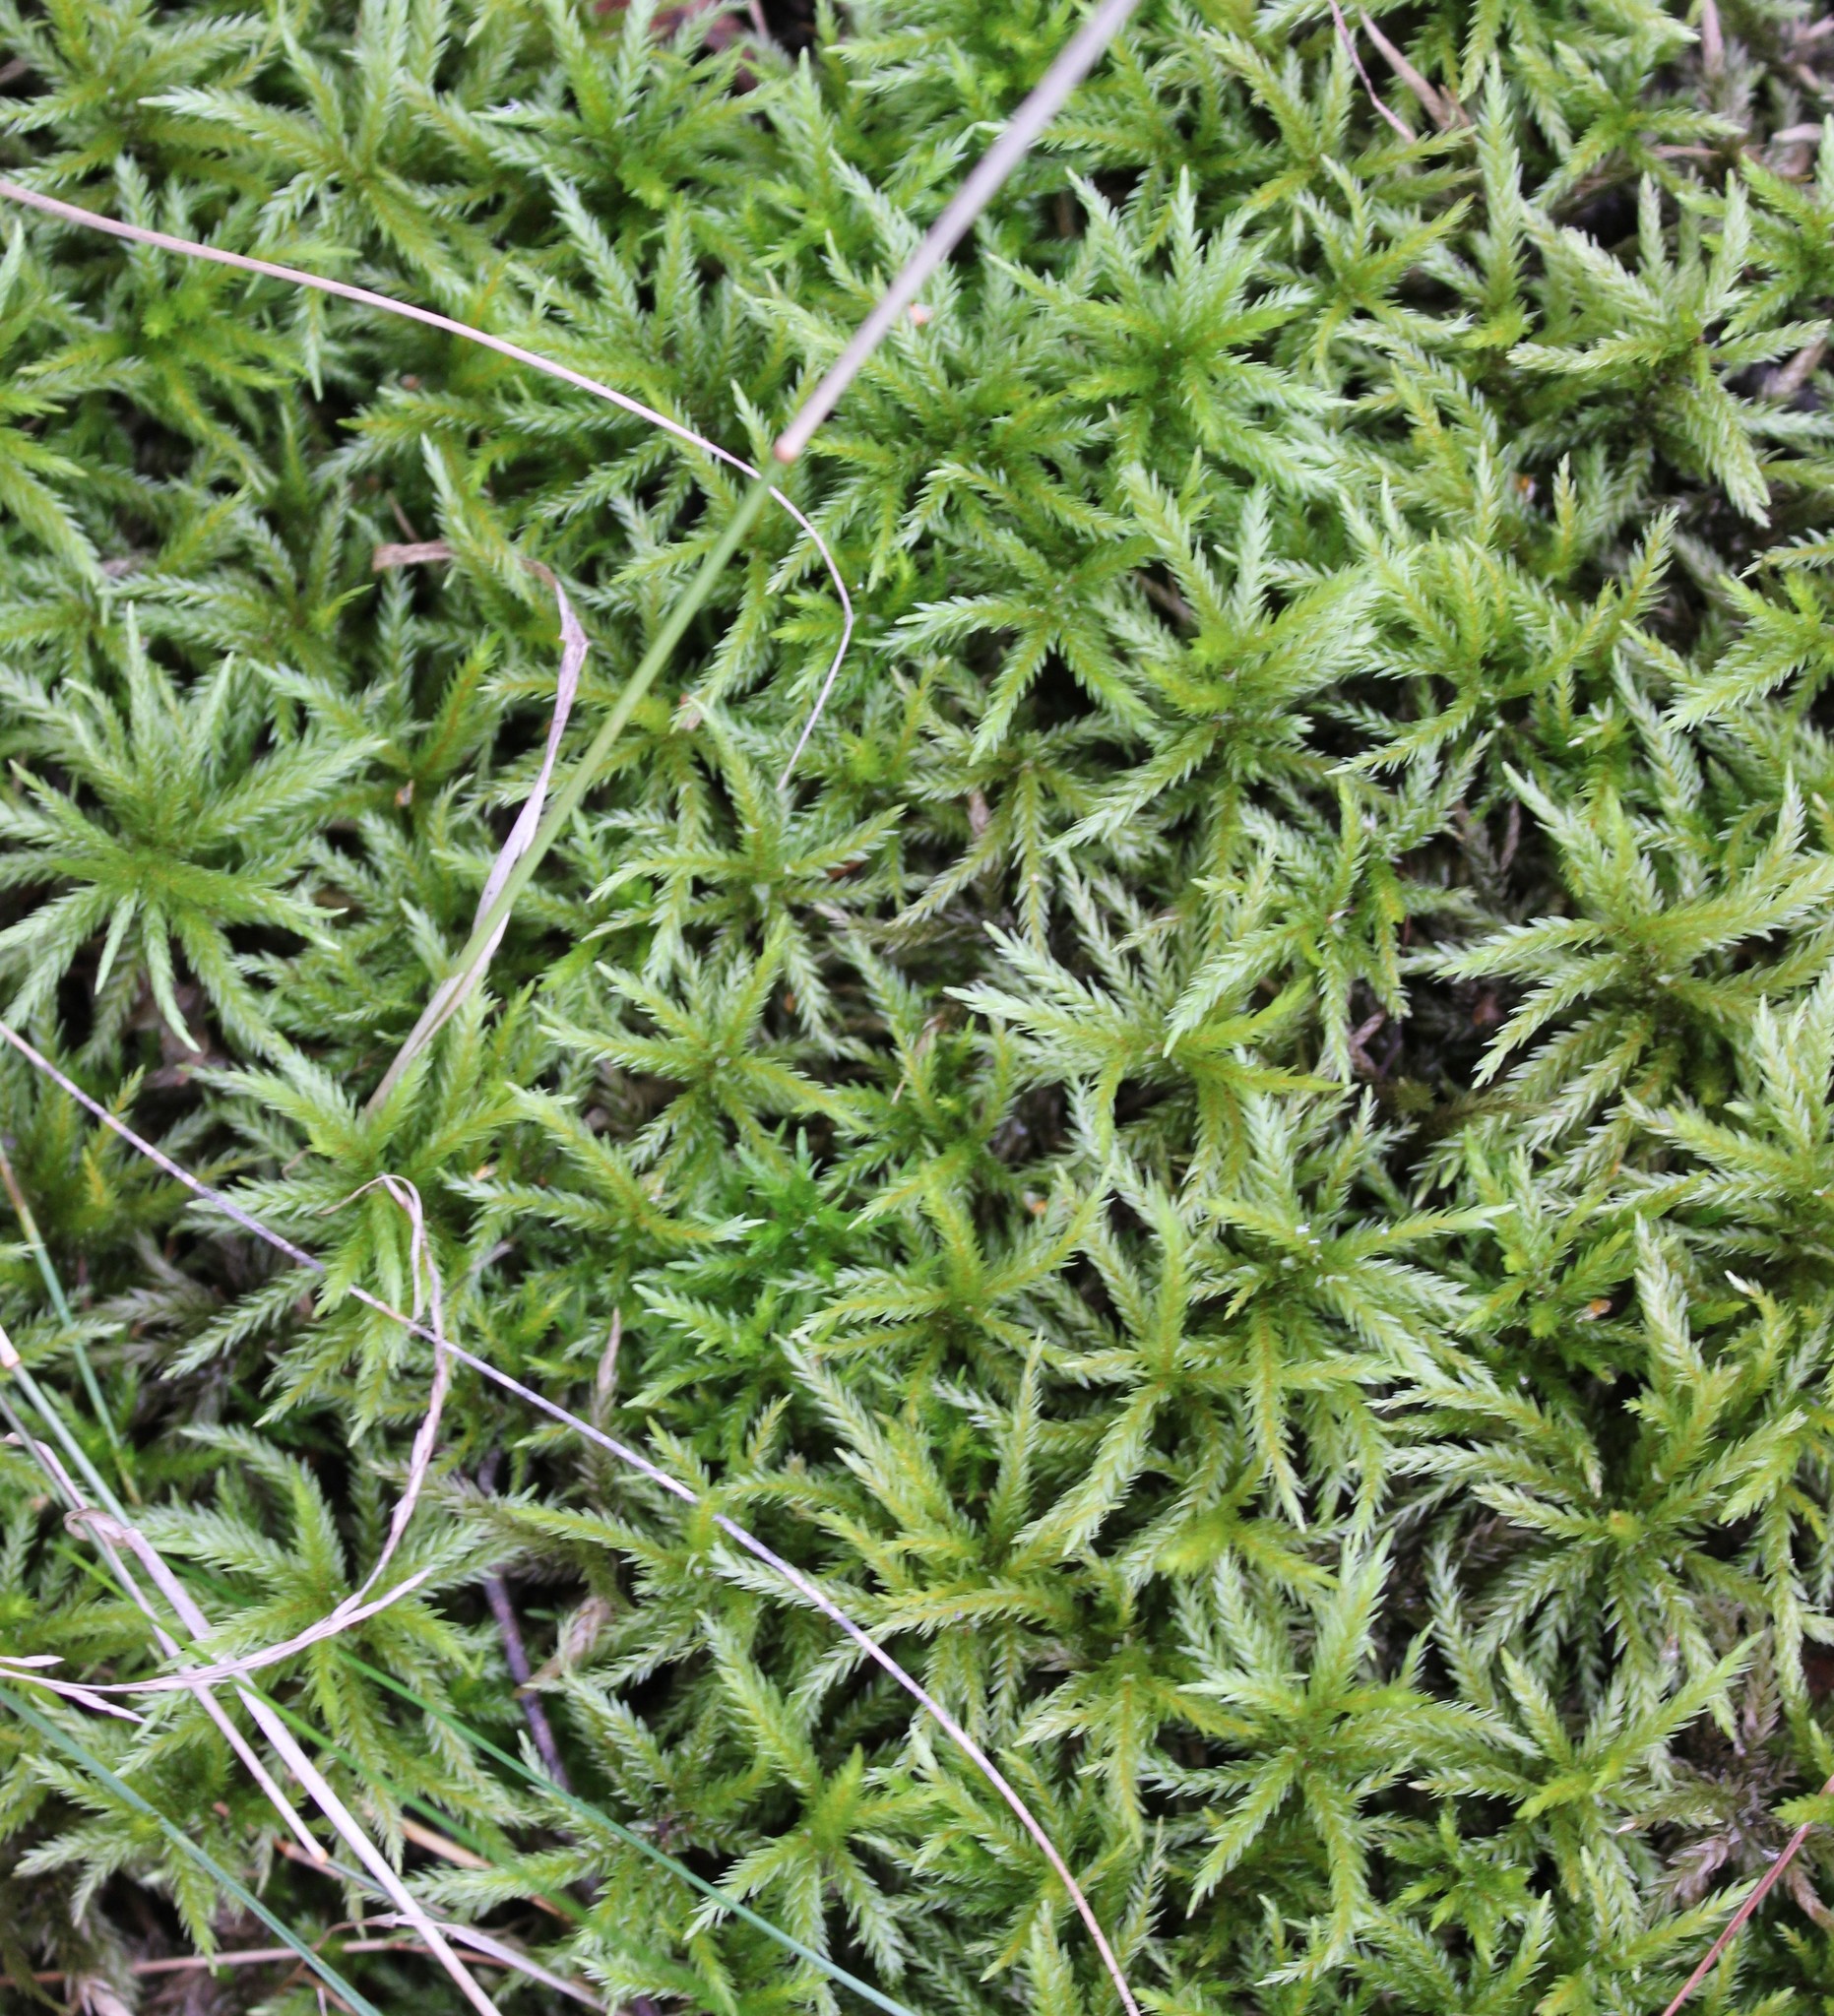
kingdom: Plantae
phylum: Bryophyta
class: Bryopsida
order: Hypnales
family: Climaciaceae
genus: Climacium
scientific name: Climacium dendroides
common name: Northern tree moss
